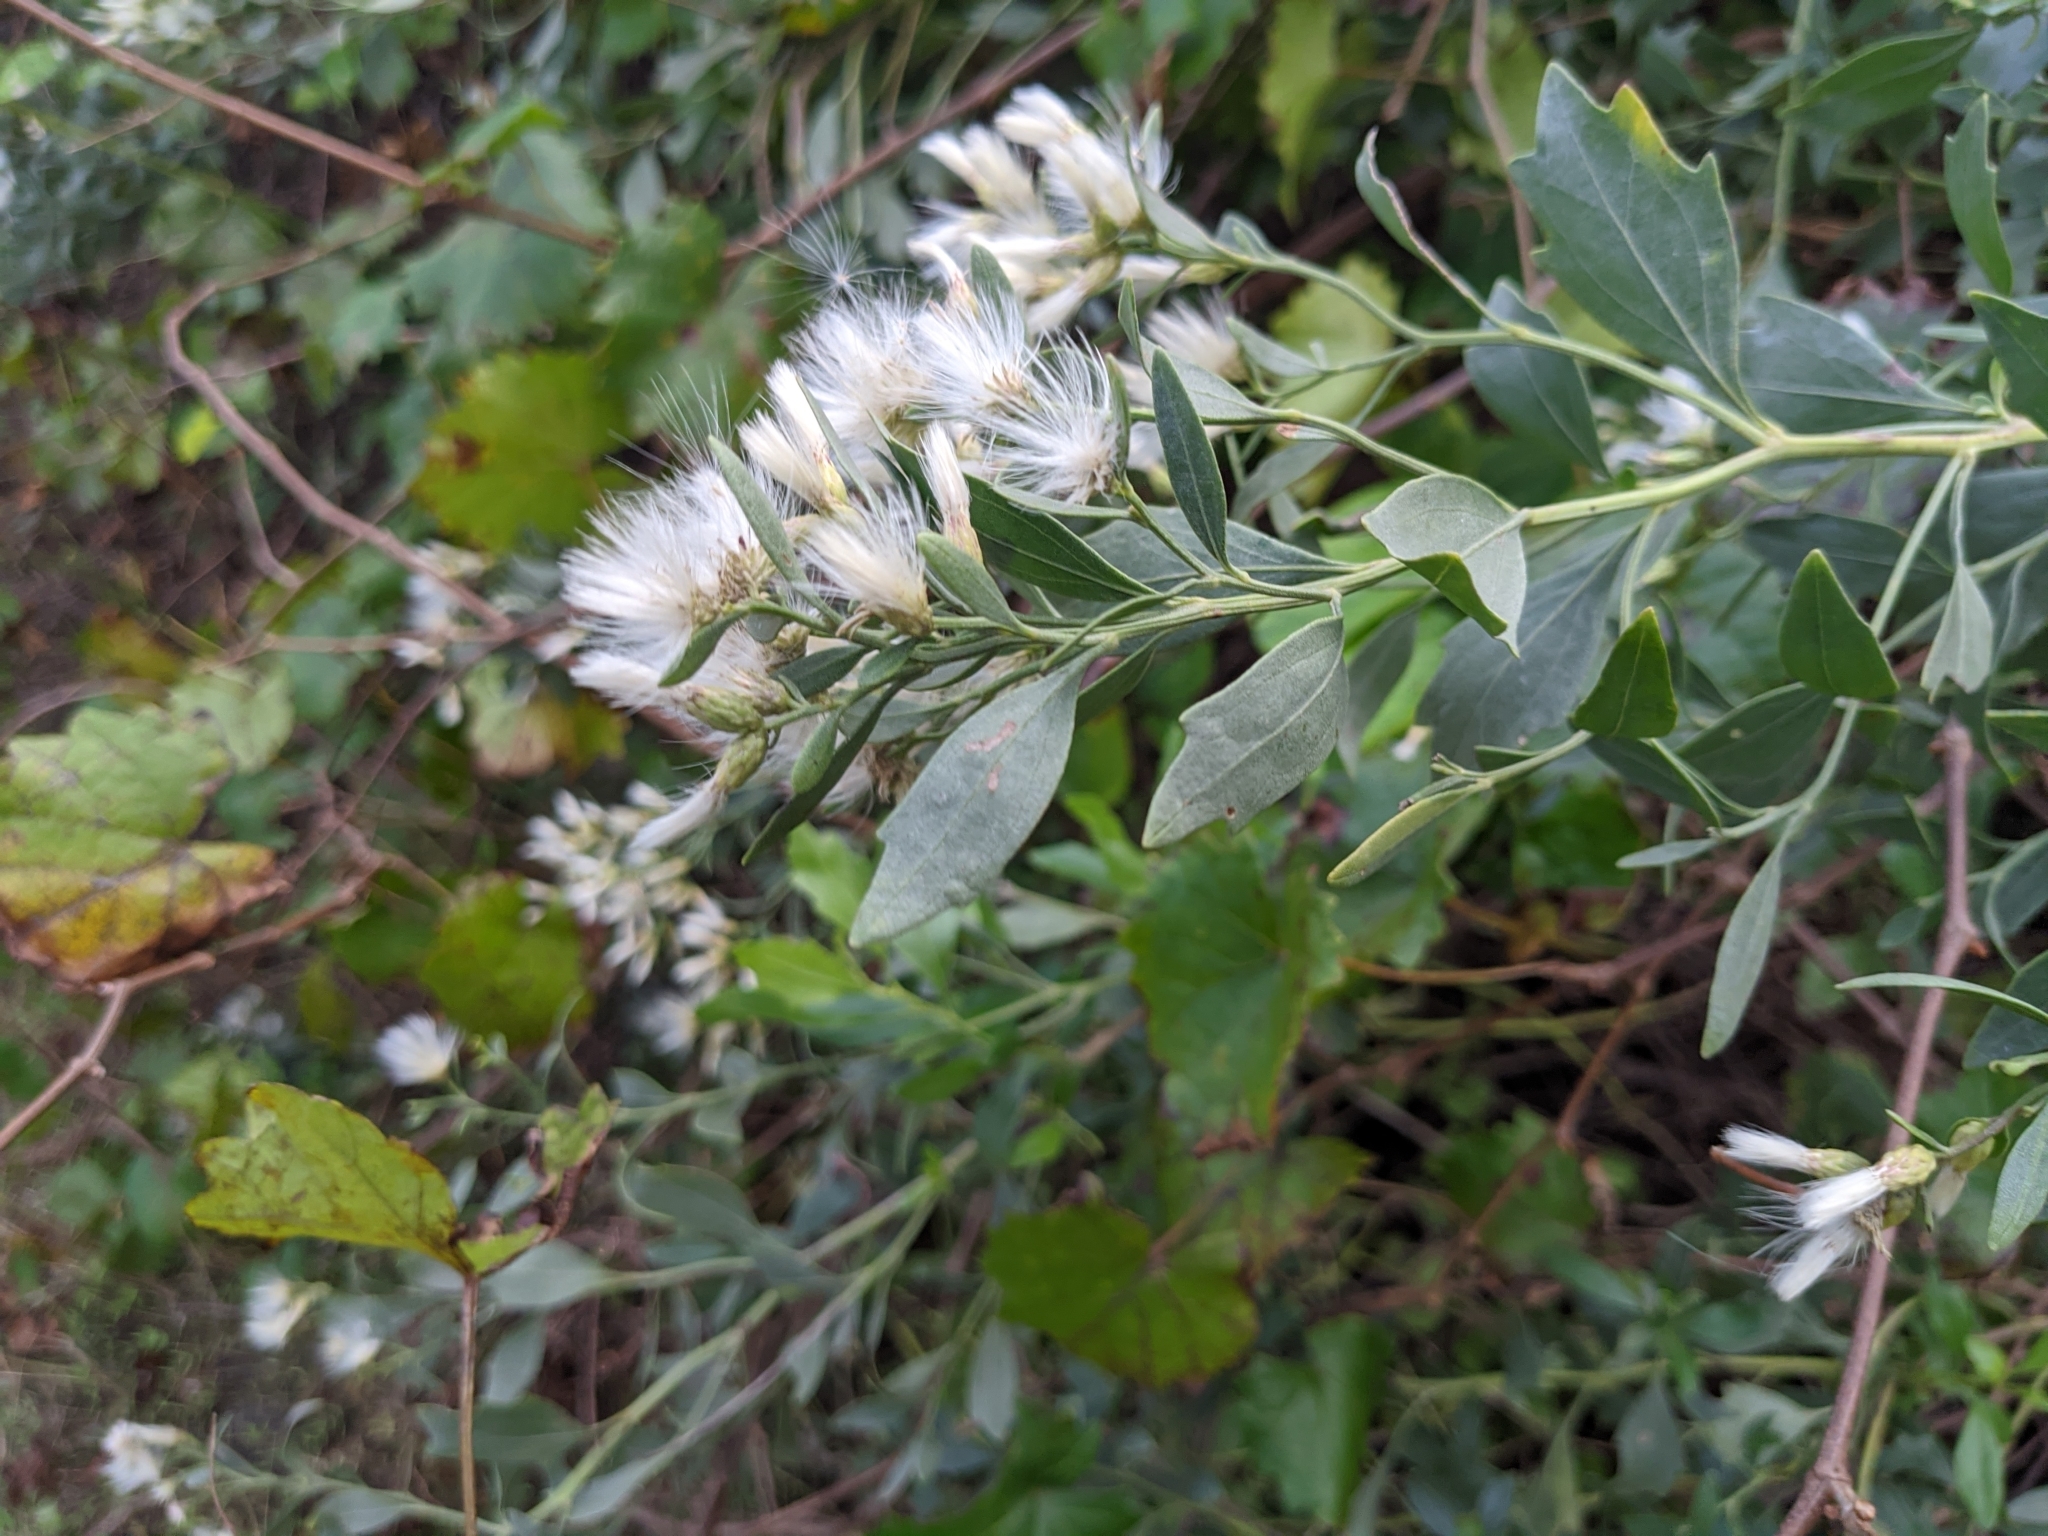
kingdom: Plantae
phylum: Tracheophyta
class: Magnoliopsida
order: Asterales
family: Asteraceae
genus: Baccharis
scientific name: Baccharis halimifolia
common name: Eastern baccharis
